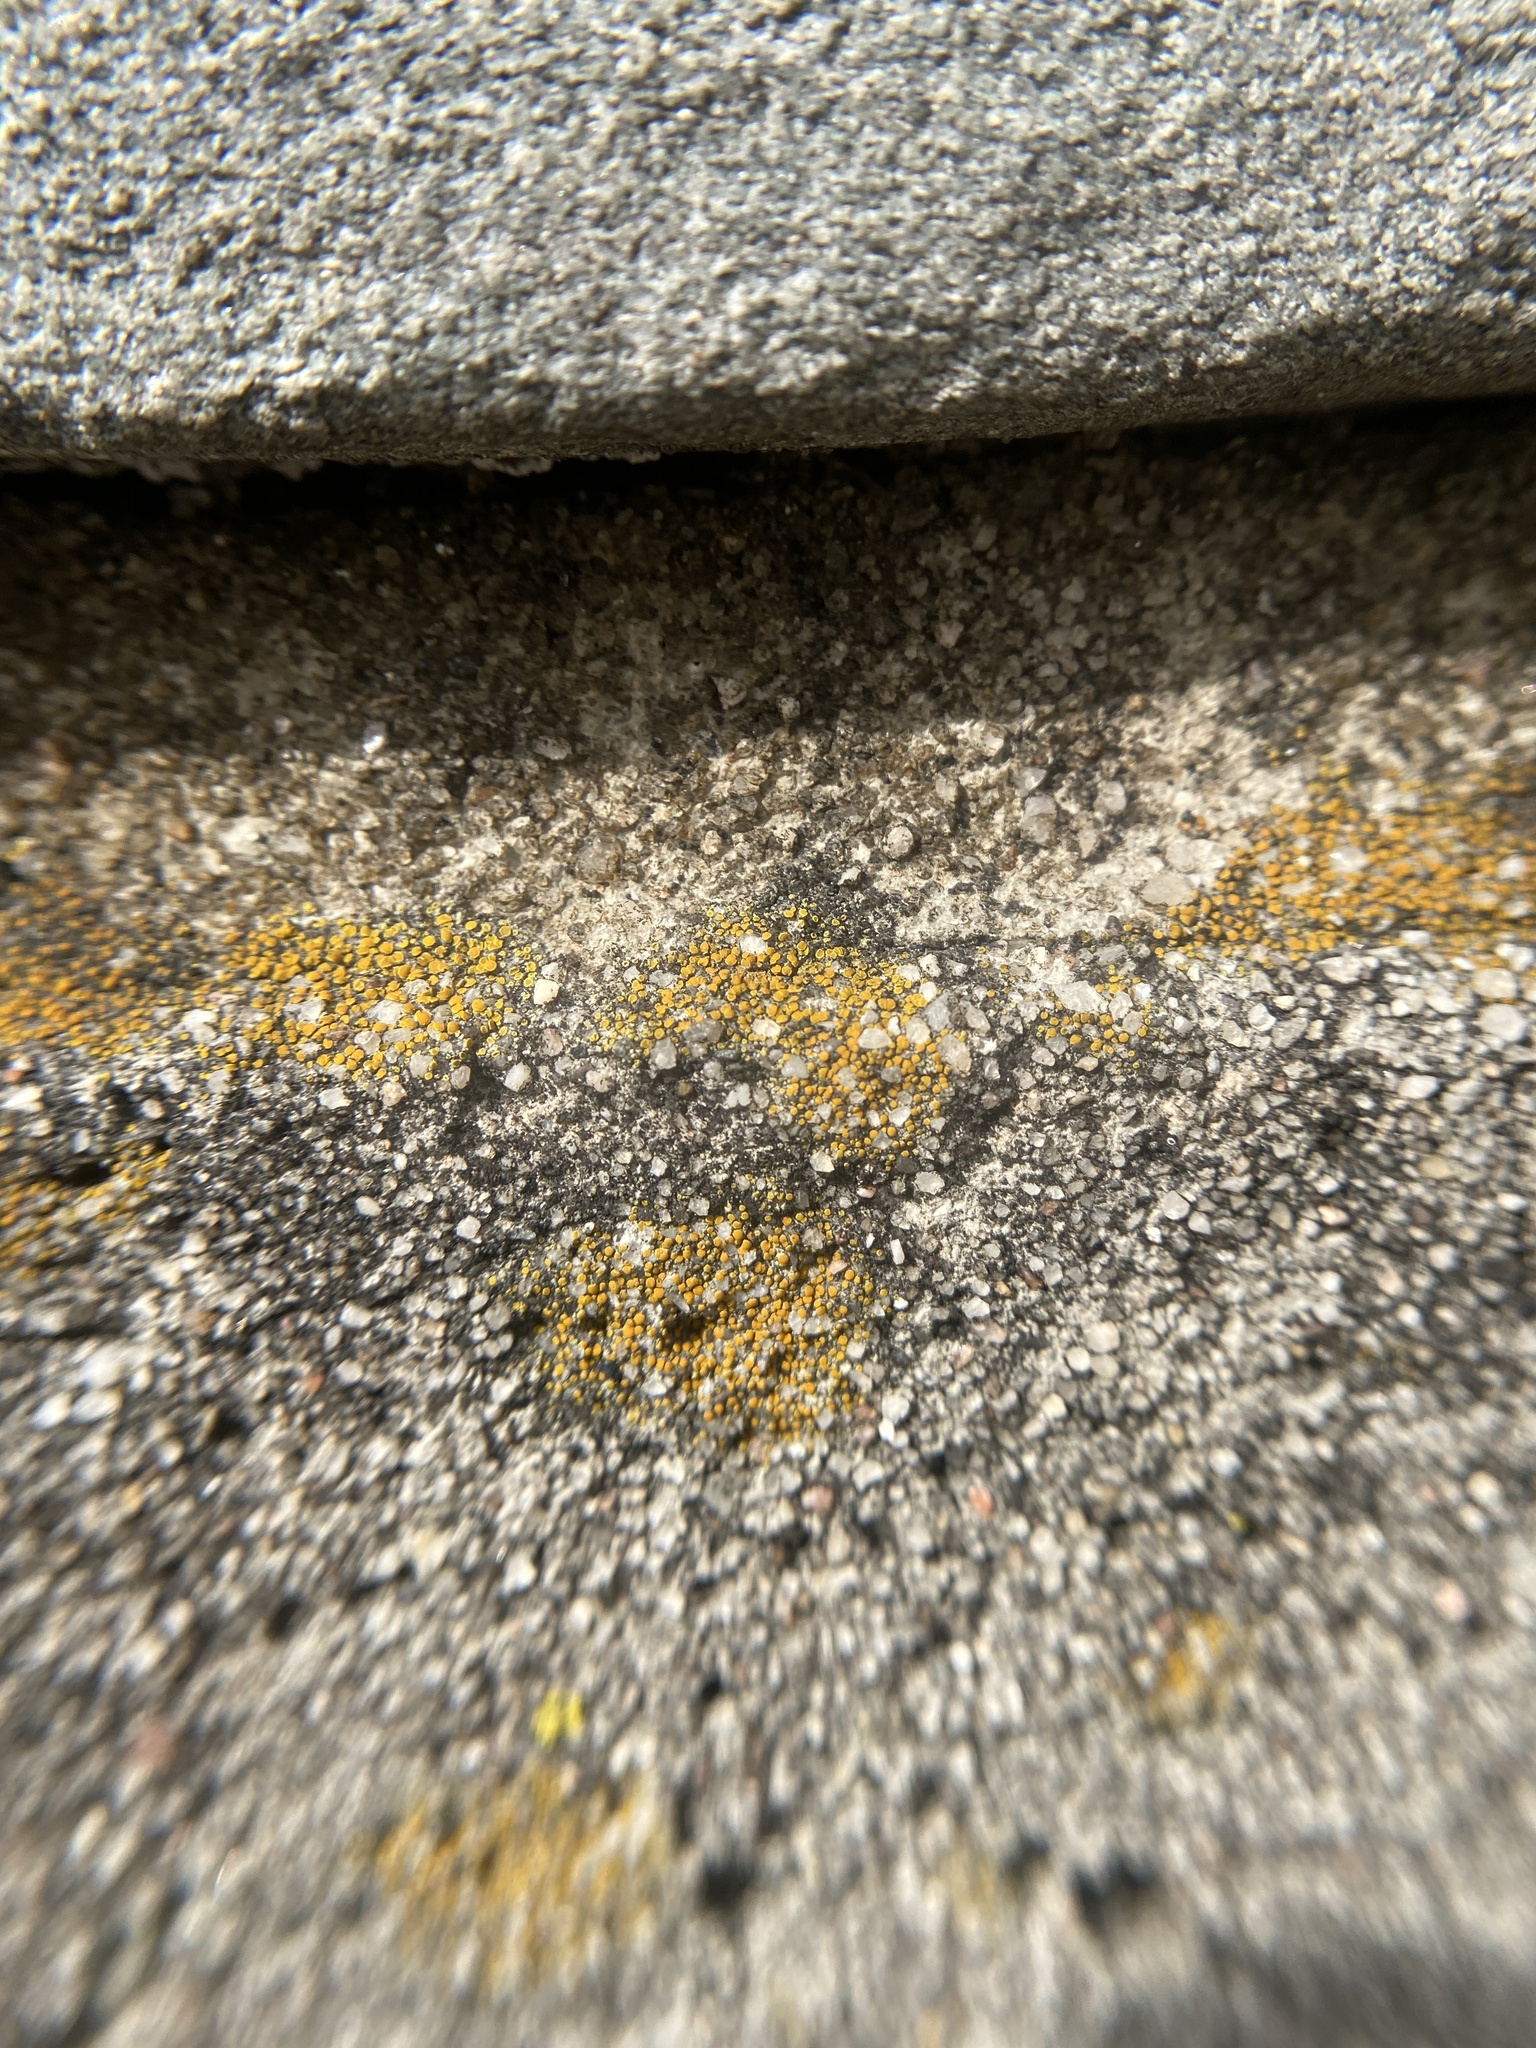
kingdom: Fungi
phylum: Ascomycota
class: Lecanoromycetes
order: Teloschistales
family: Teloschistaceae
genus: Xanthocarpia
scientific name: Xanthocarpia feracissima
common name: Sidewalk firedot
